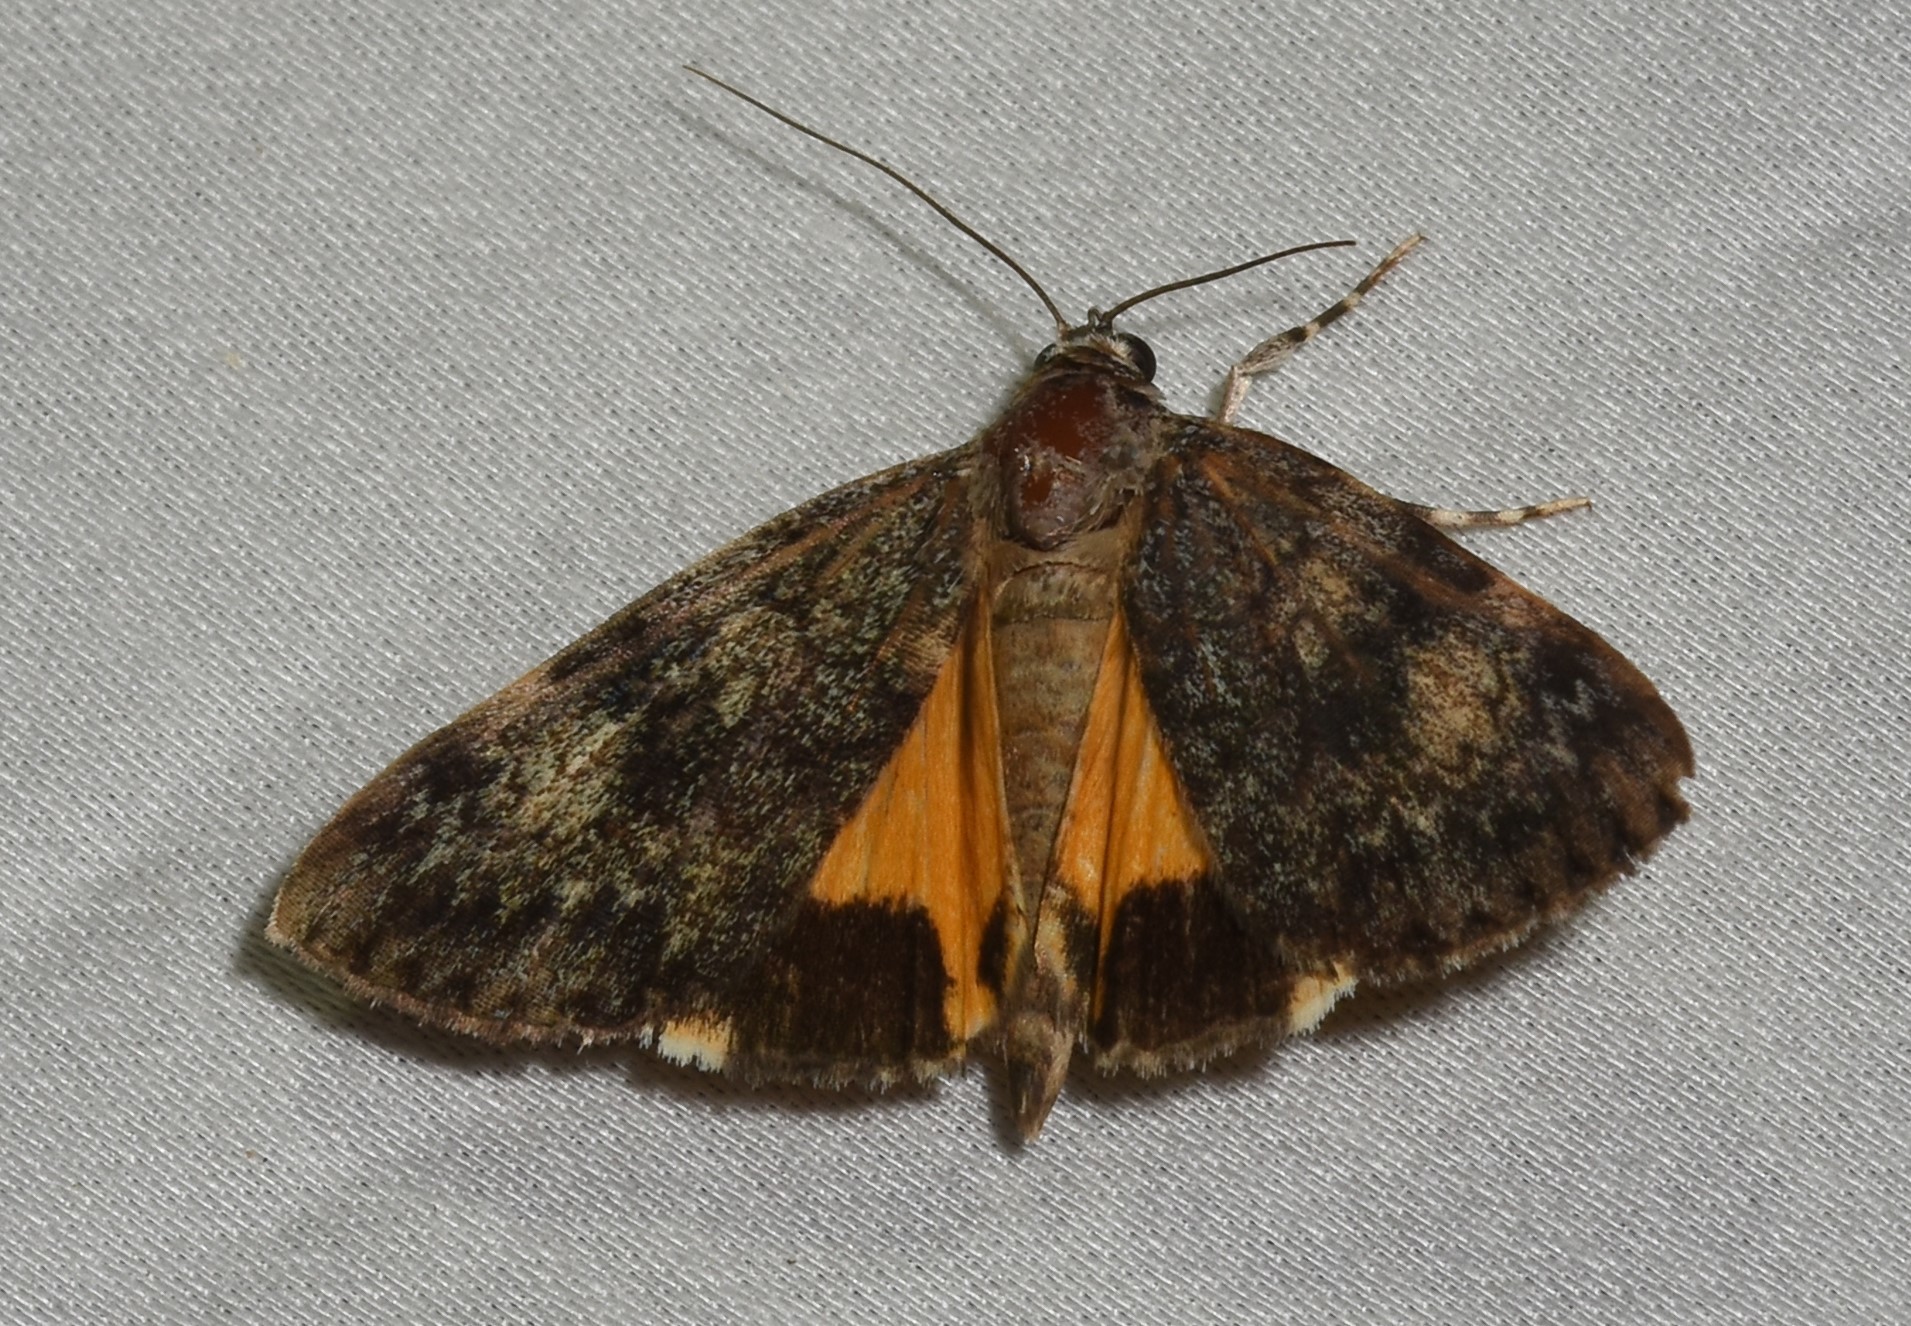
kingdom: Animalia
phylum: Arthropoda
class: Insecta
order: Lepidoptera
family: Erebidae
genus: Catocala
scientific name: Catocala lineella
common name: Little lined underwing
